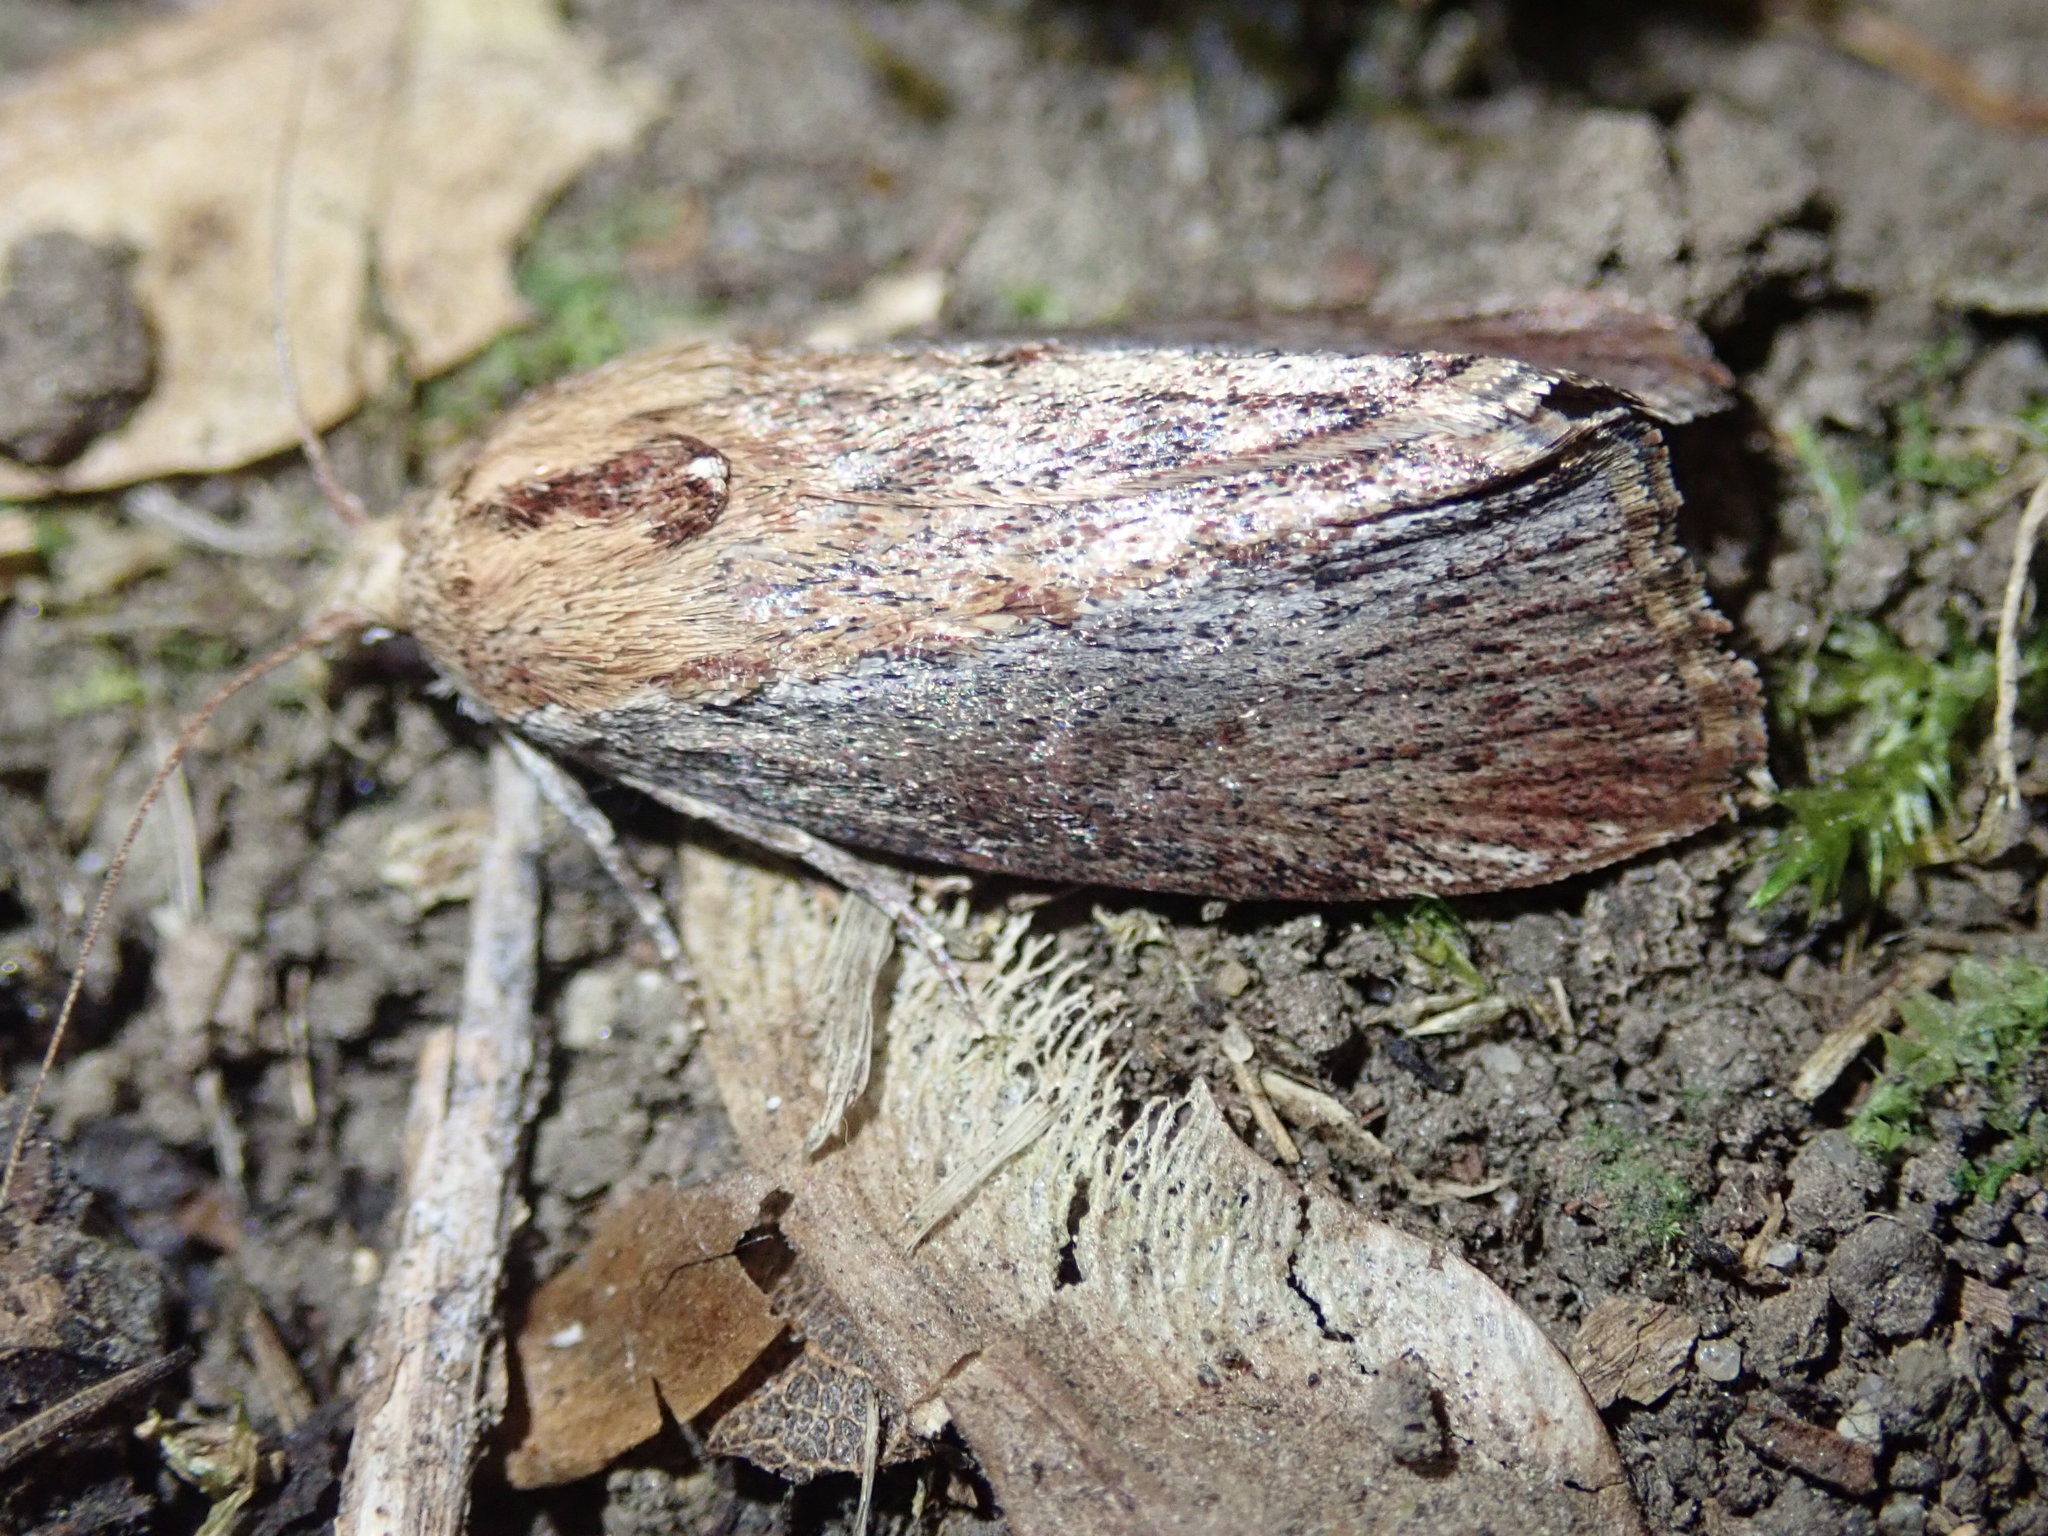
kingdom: Animalia
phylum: Arthropoda
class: Insecta
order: Lepidoptera
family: Pyralidae
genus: Galleria
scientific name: Galleria mellonella
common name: Greater wax moth
